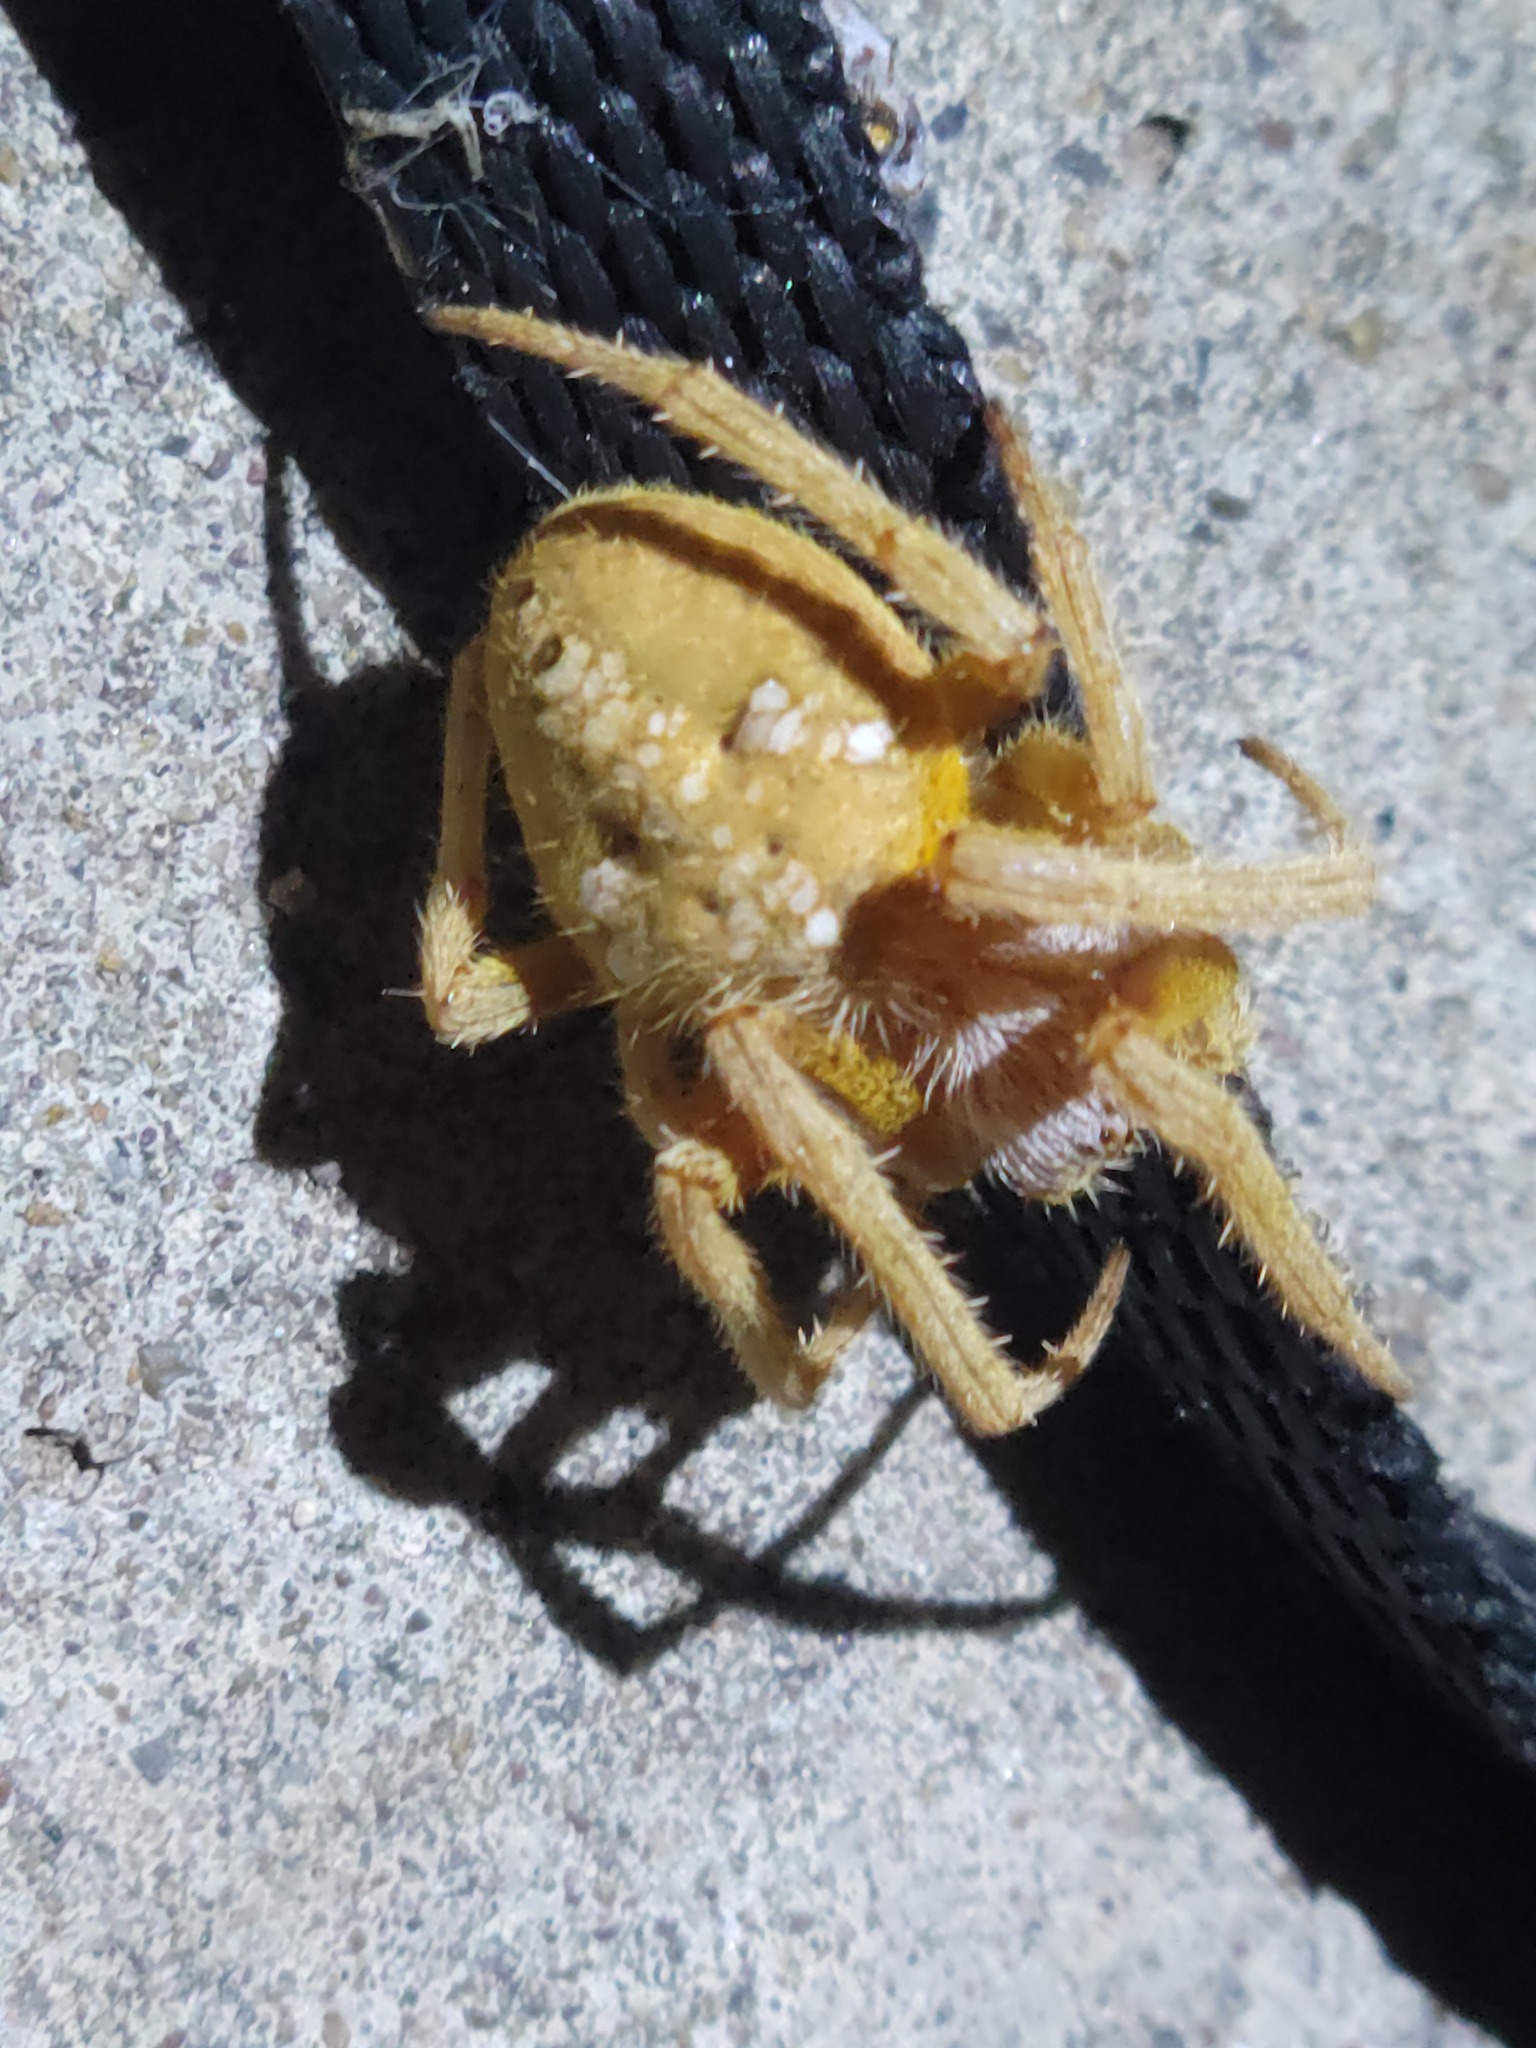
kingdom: Animalia
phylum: Arthropoda
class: Arachnida
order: Araneae
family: Araneidae
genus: Eriophora
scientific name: Eriophora ravilla
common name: Orb weavers
